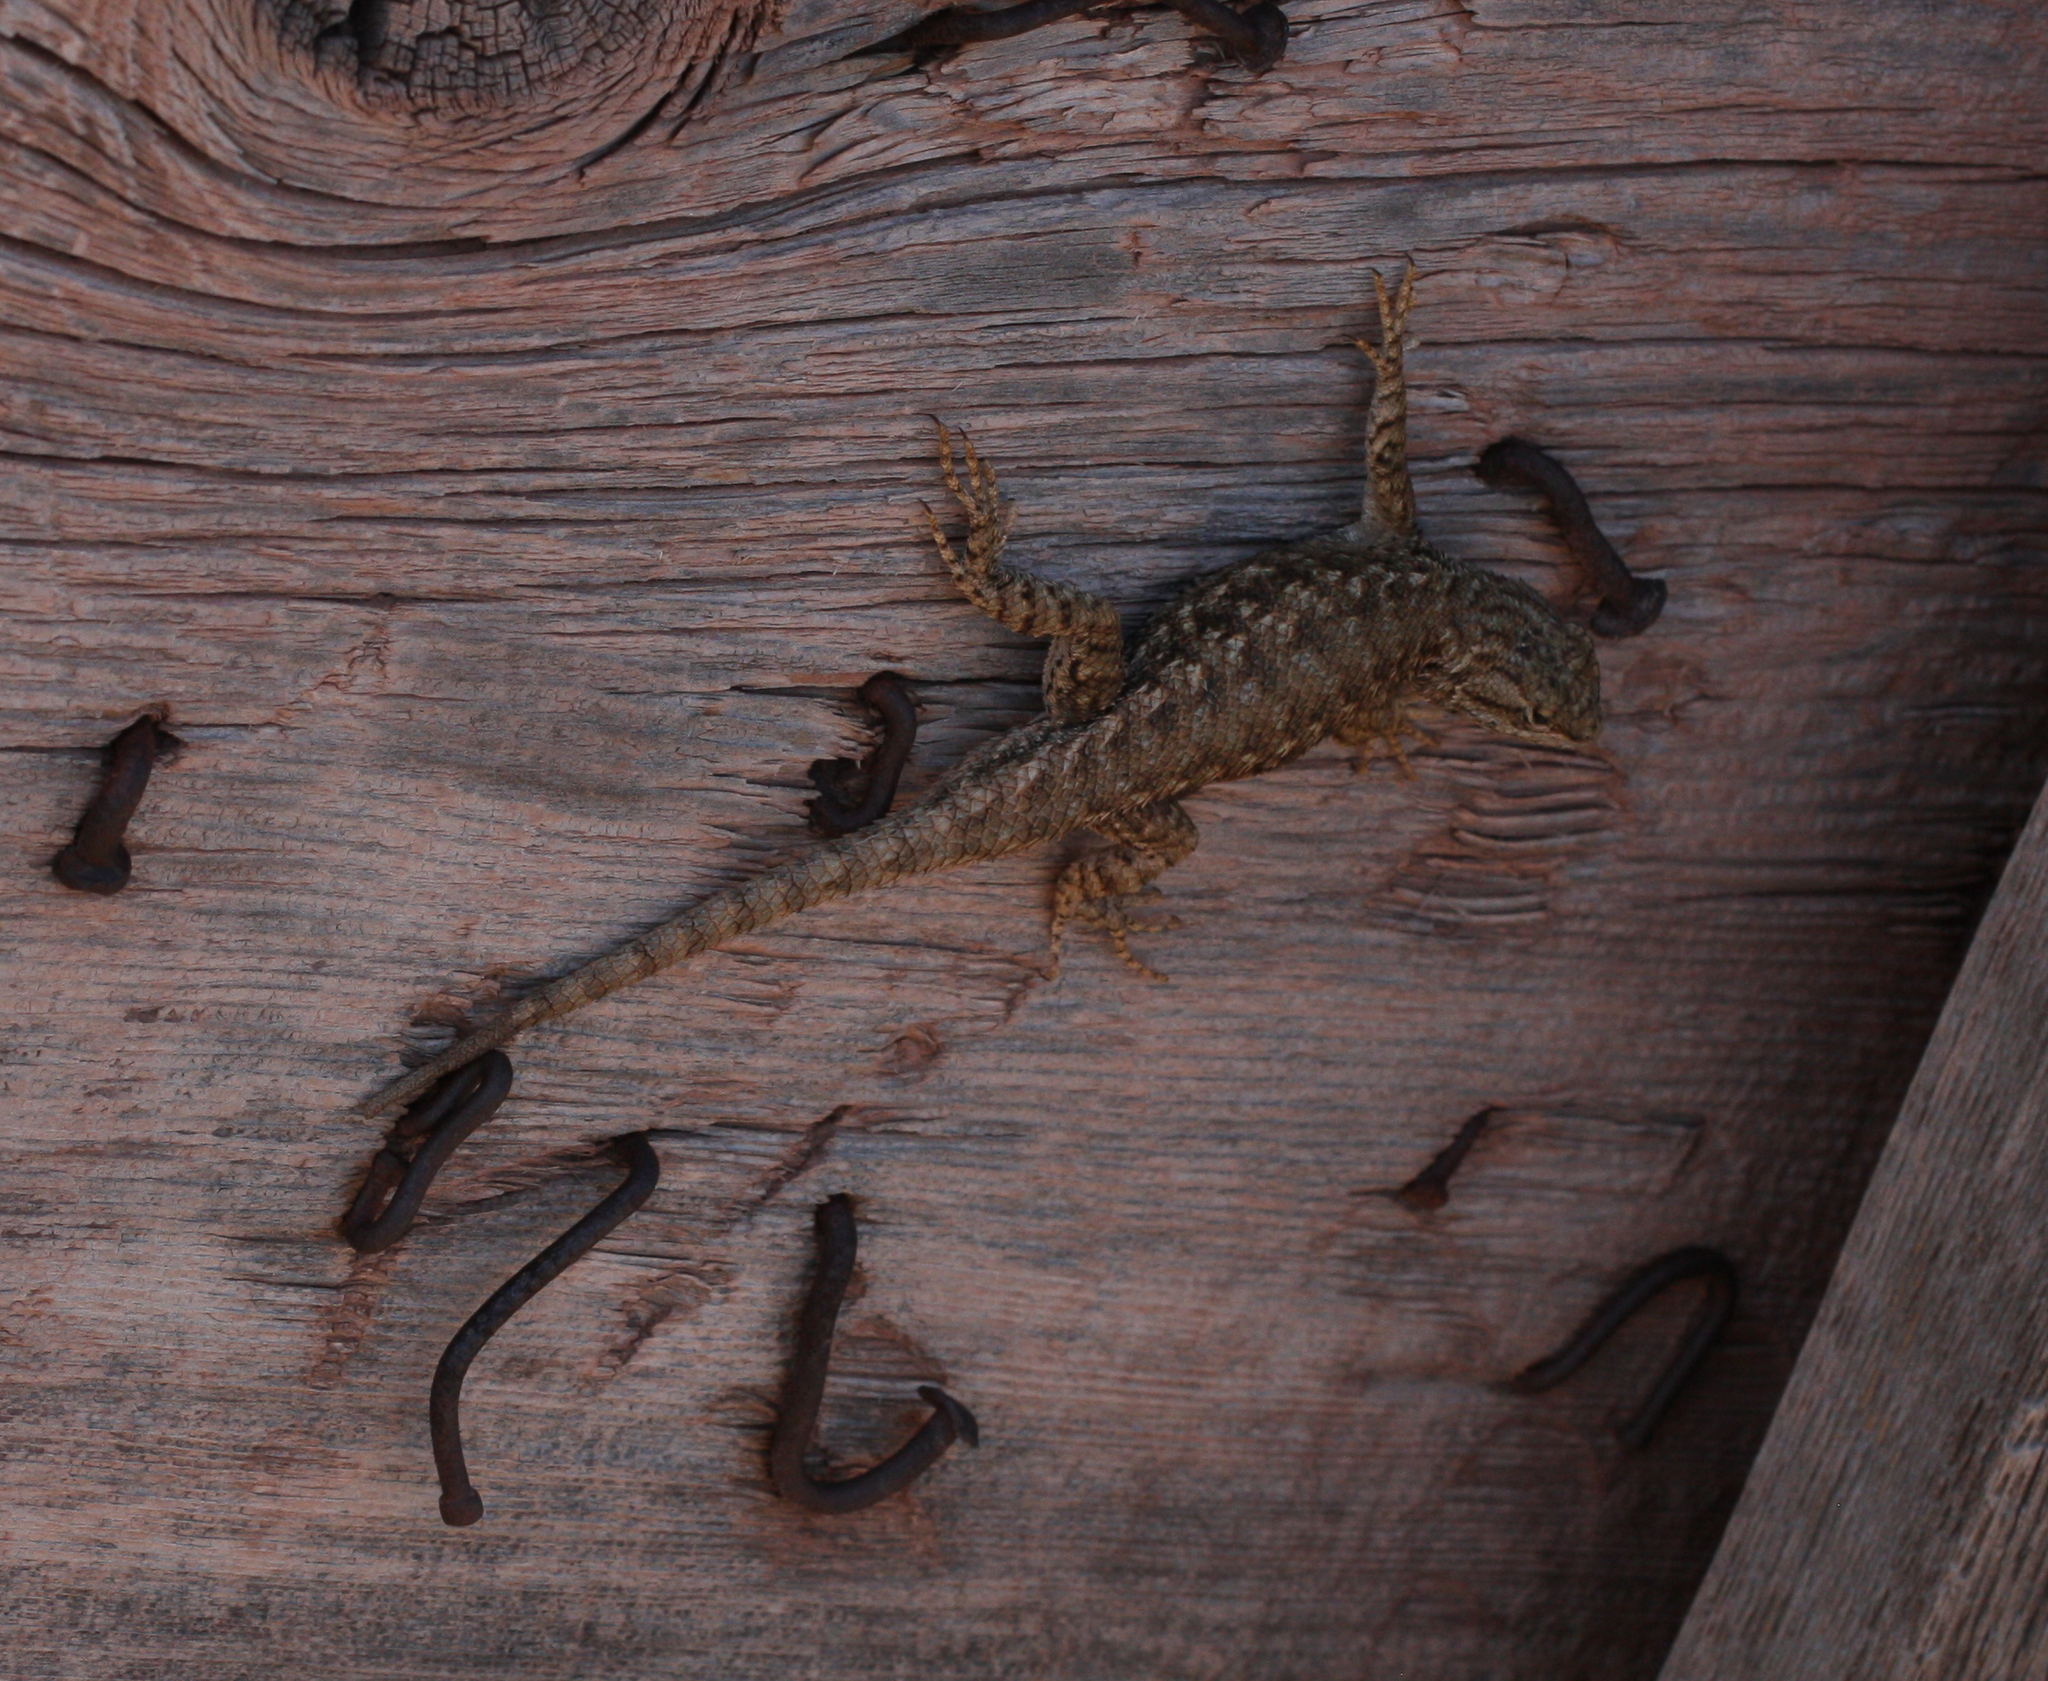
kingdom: Animalia
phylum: Chordata
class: Squamata
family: Phrynosomatidae
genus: Sceloporus
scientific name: Sceloporus tristichus
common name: Plateau fence lizard
